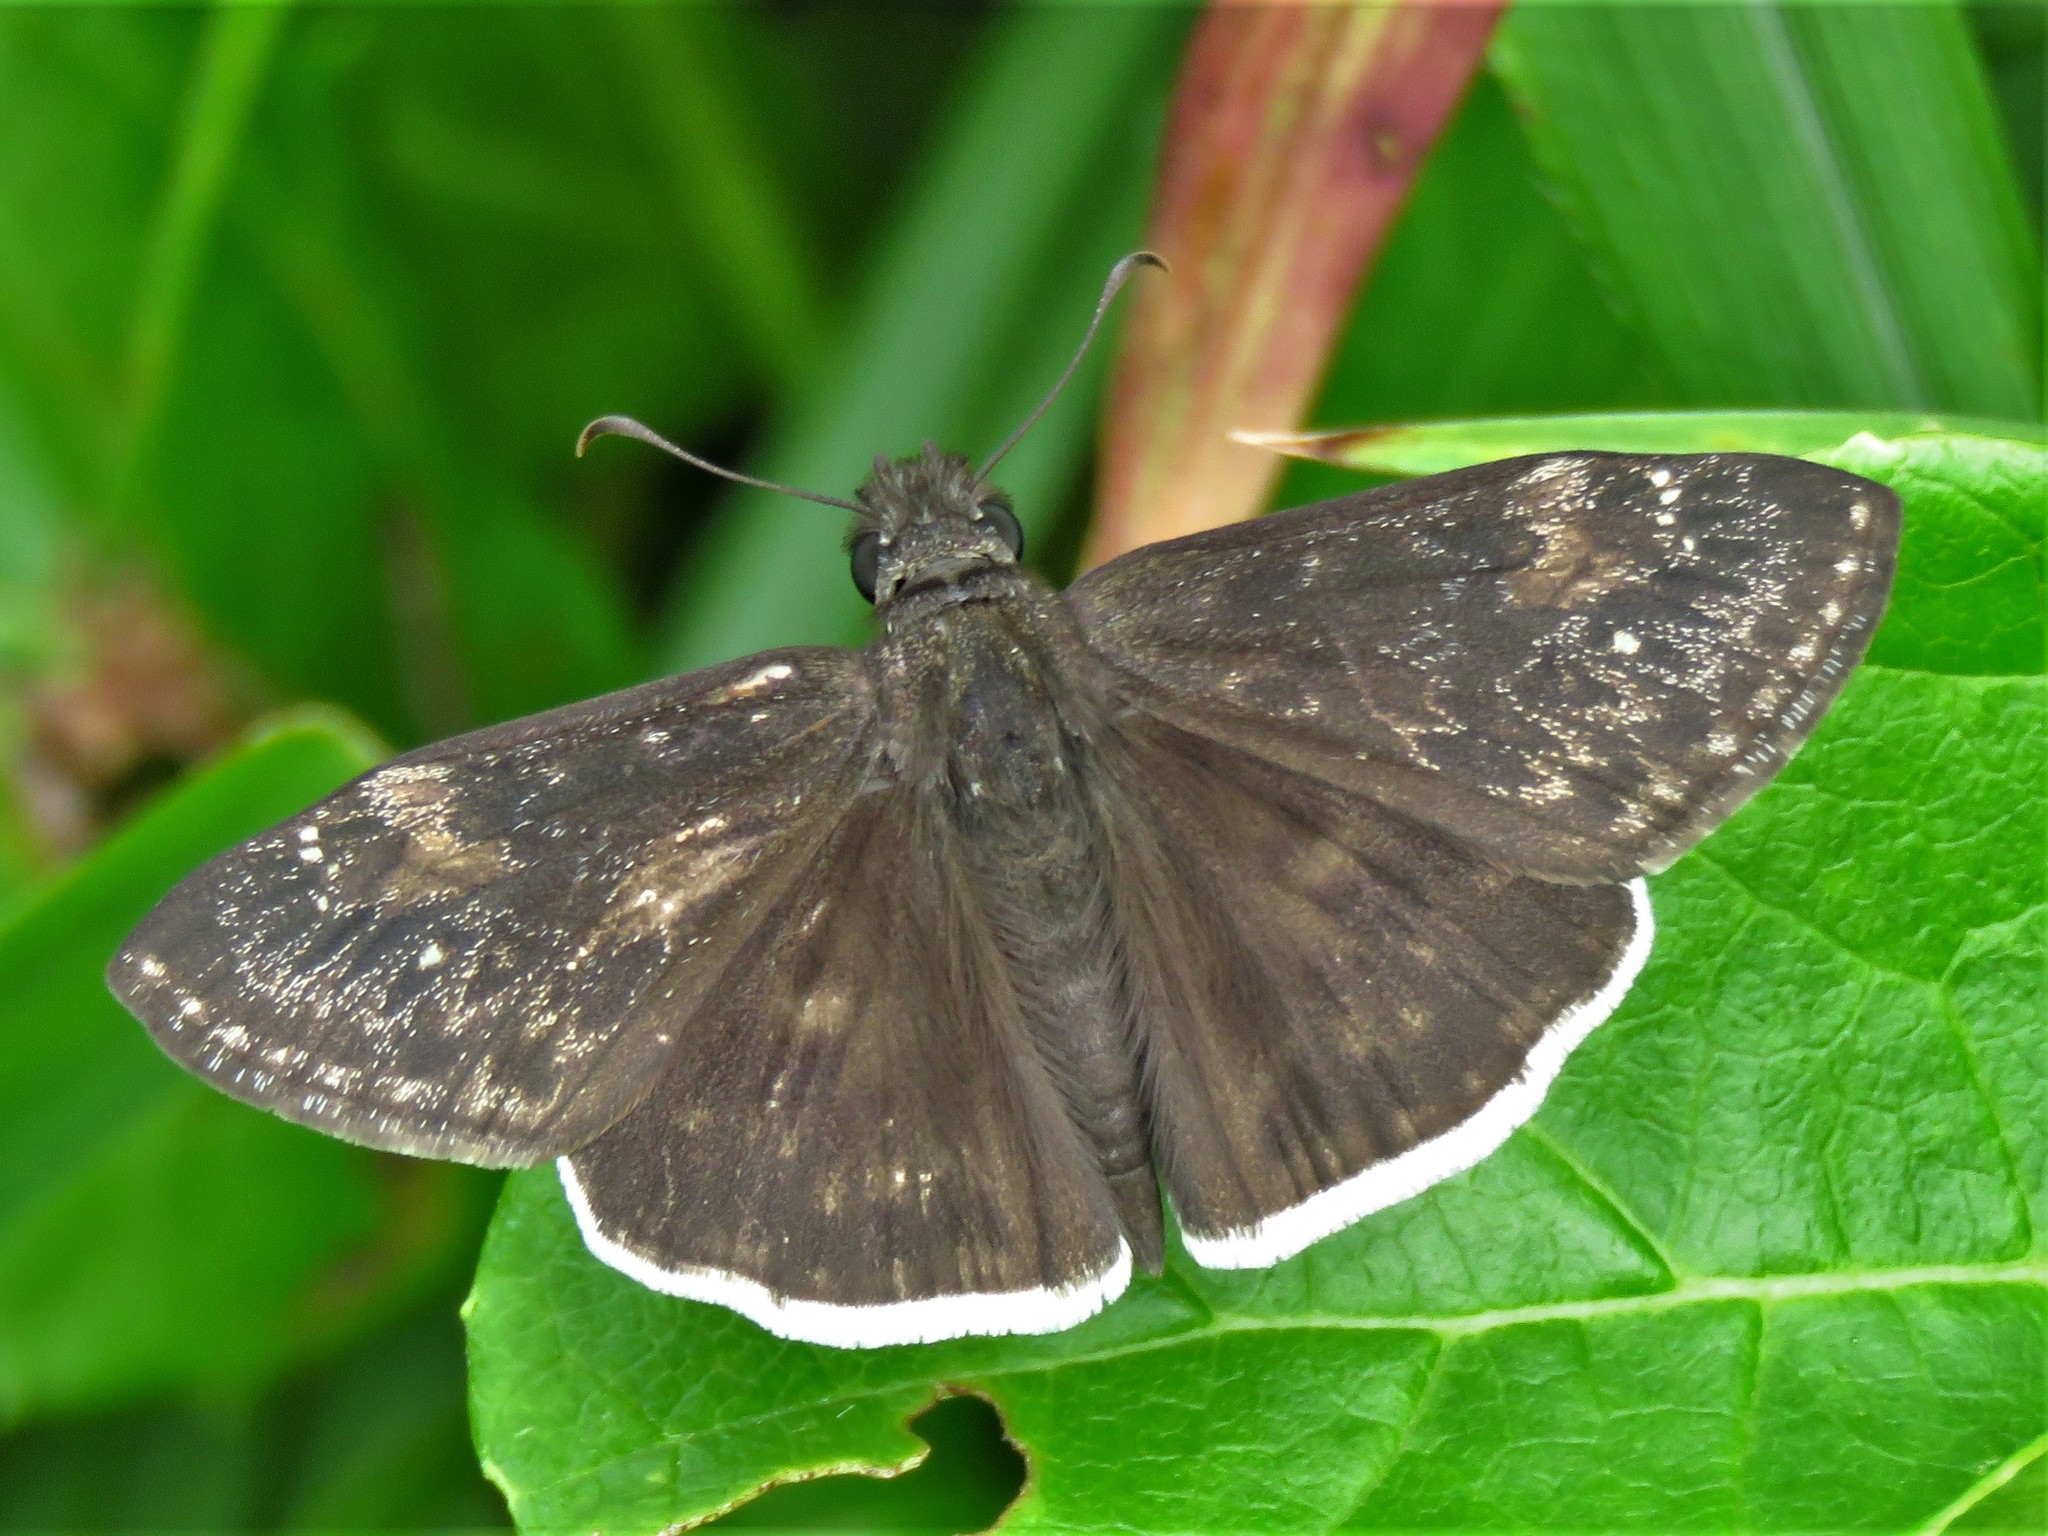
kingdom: Animalia
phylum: Arthropoda
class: Insecta
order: Lepidoptera
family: Hesperiidae
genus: Erynnis
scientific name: Erynnis funeralis
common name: Funereal duskywing
